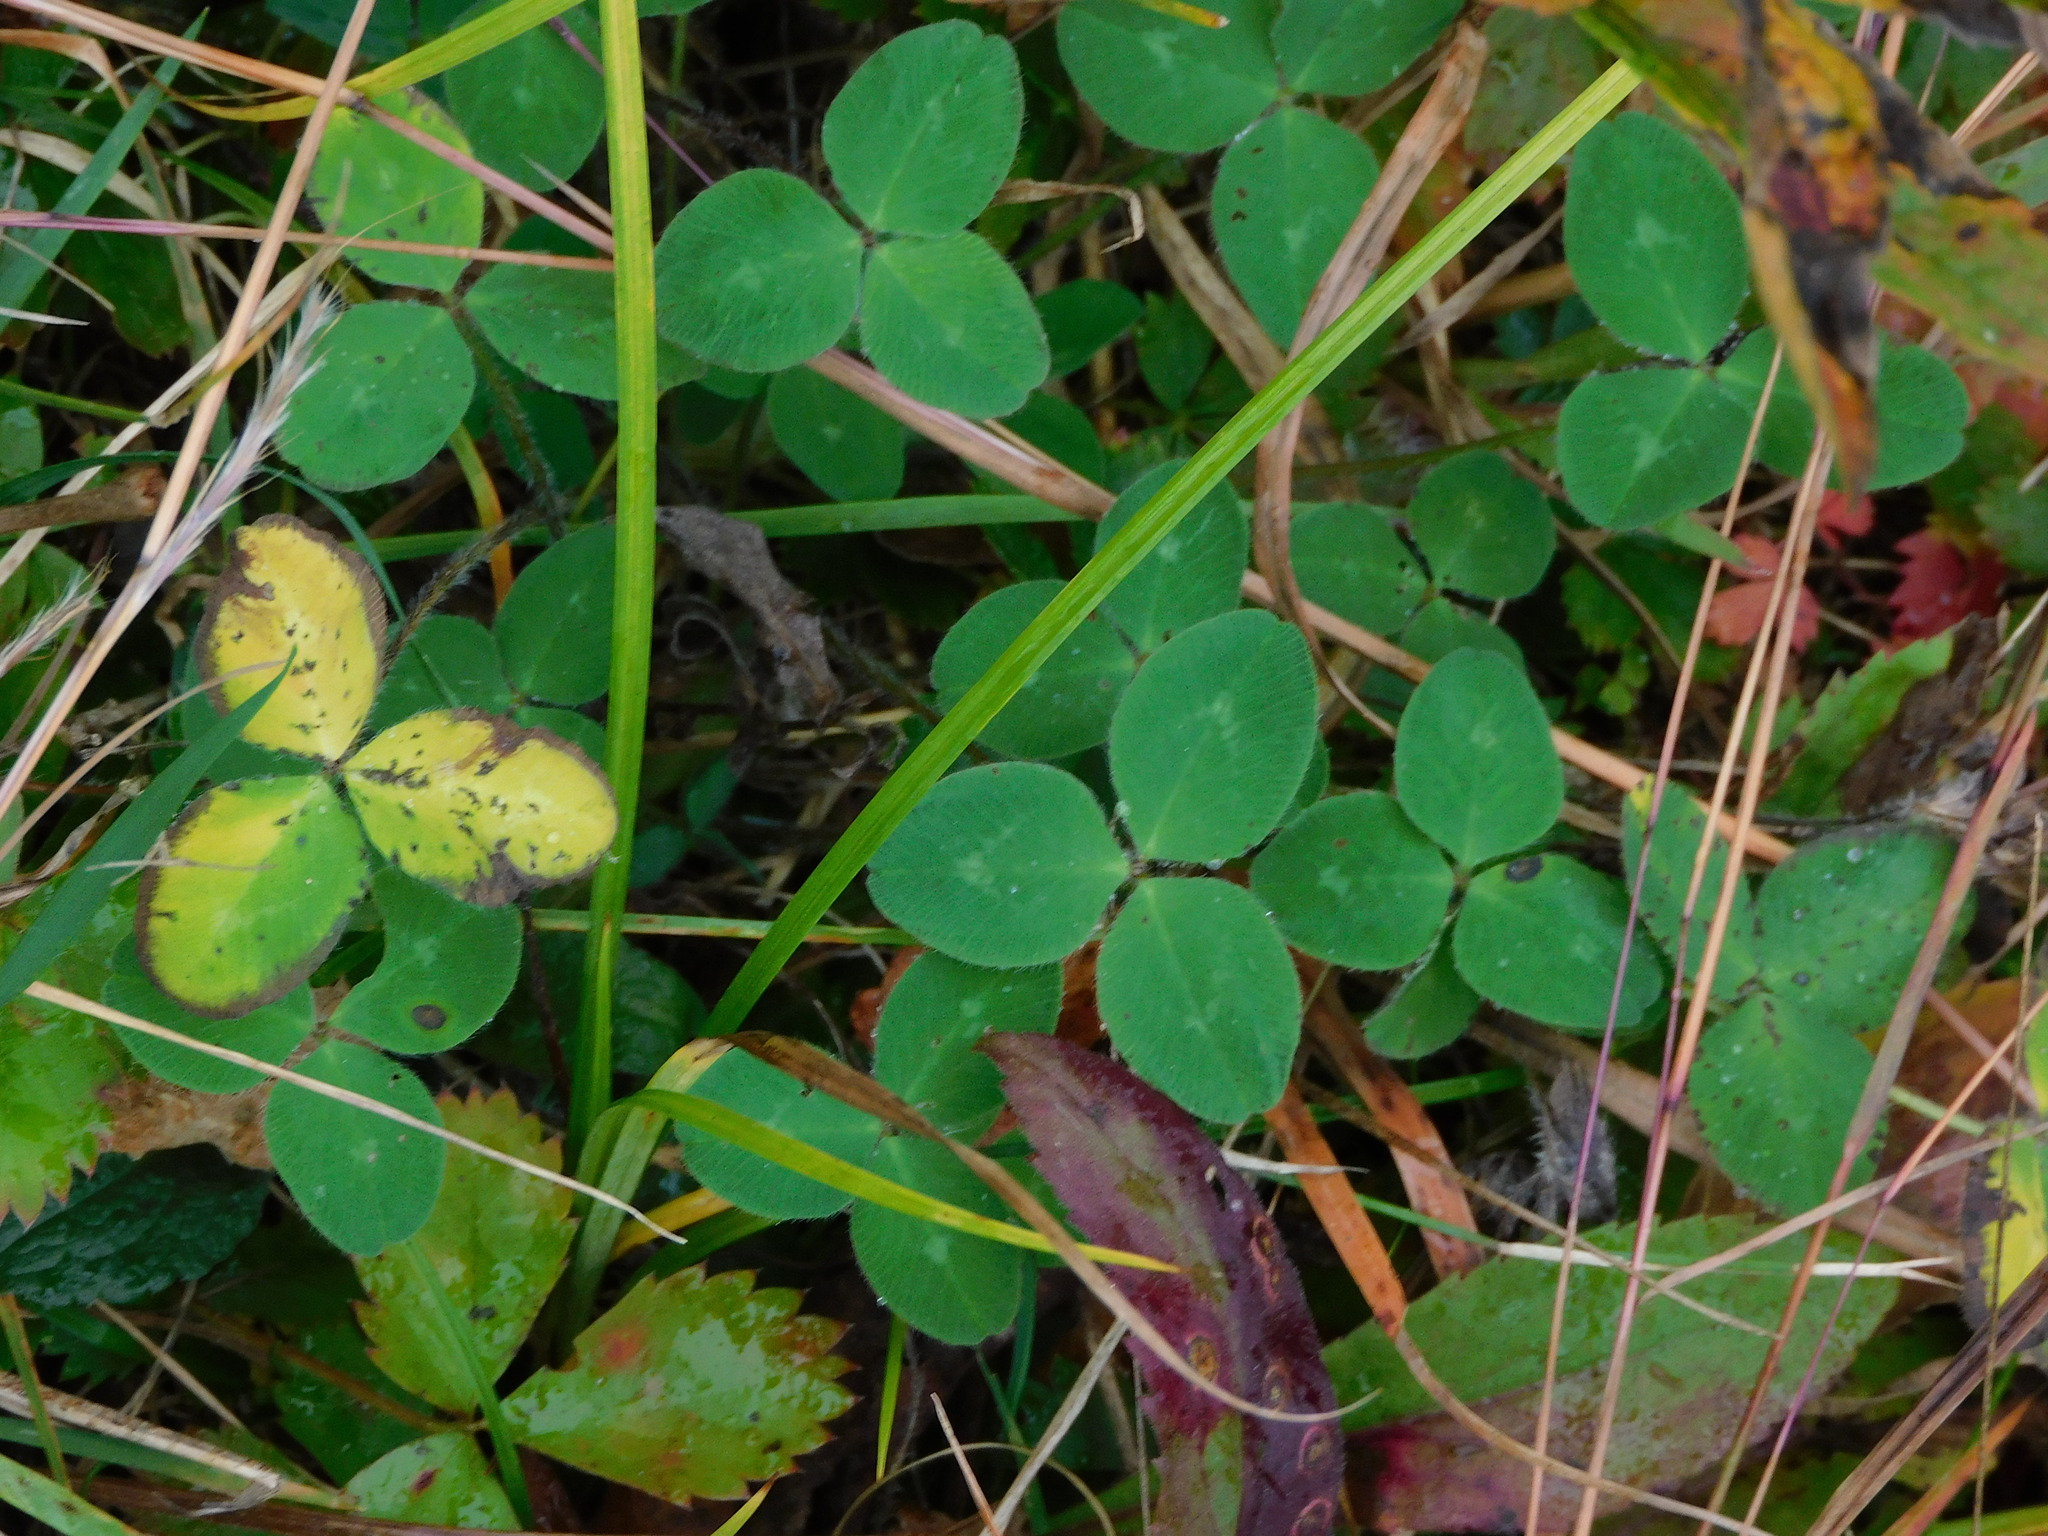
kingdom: Plantae
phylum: Tracheophyta
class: Magnoliopsida
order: Fabales
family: Fabaceae
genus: Trifolium
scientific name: Trifolium pratense
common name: Red clover
